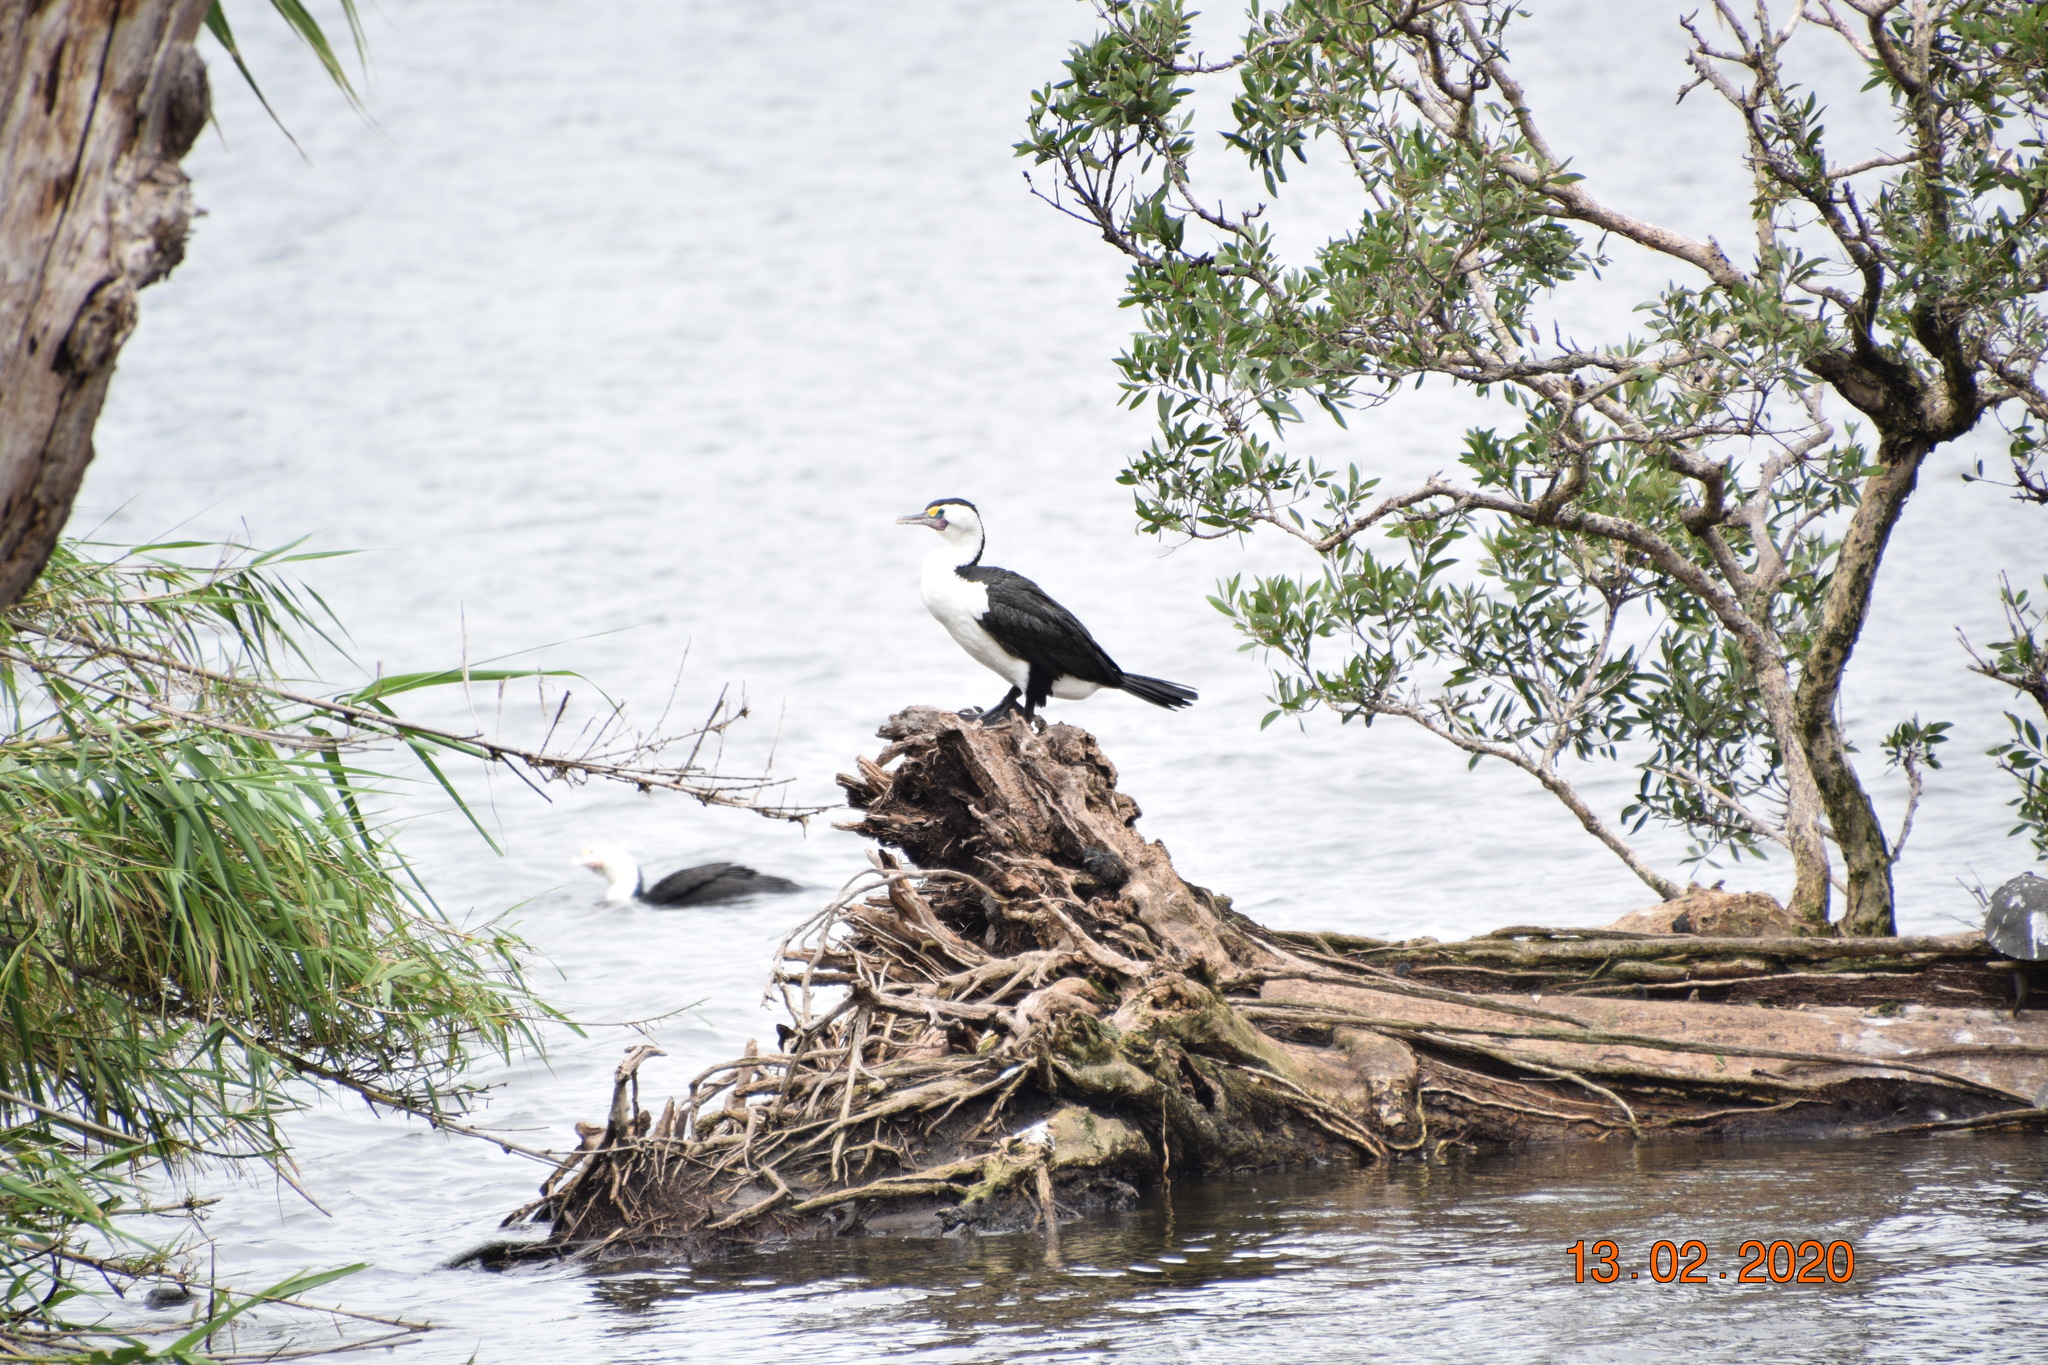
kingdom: Animalia
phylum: Chordata
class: Aves
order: Suliformes
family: Phalacrocoracidae
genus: Phalacrocorax
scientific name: Phalacrocorax varius
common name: Pied cormorant
